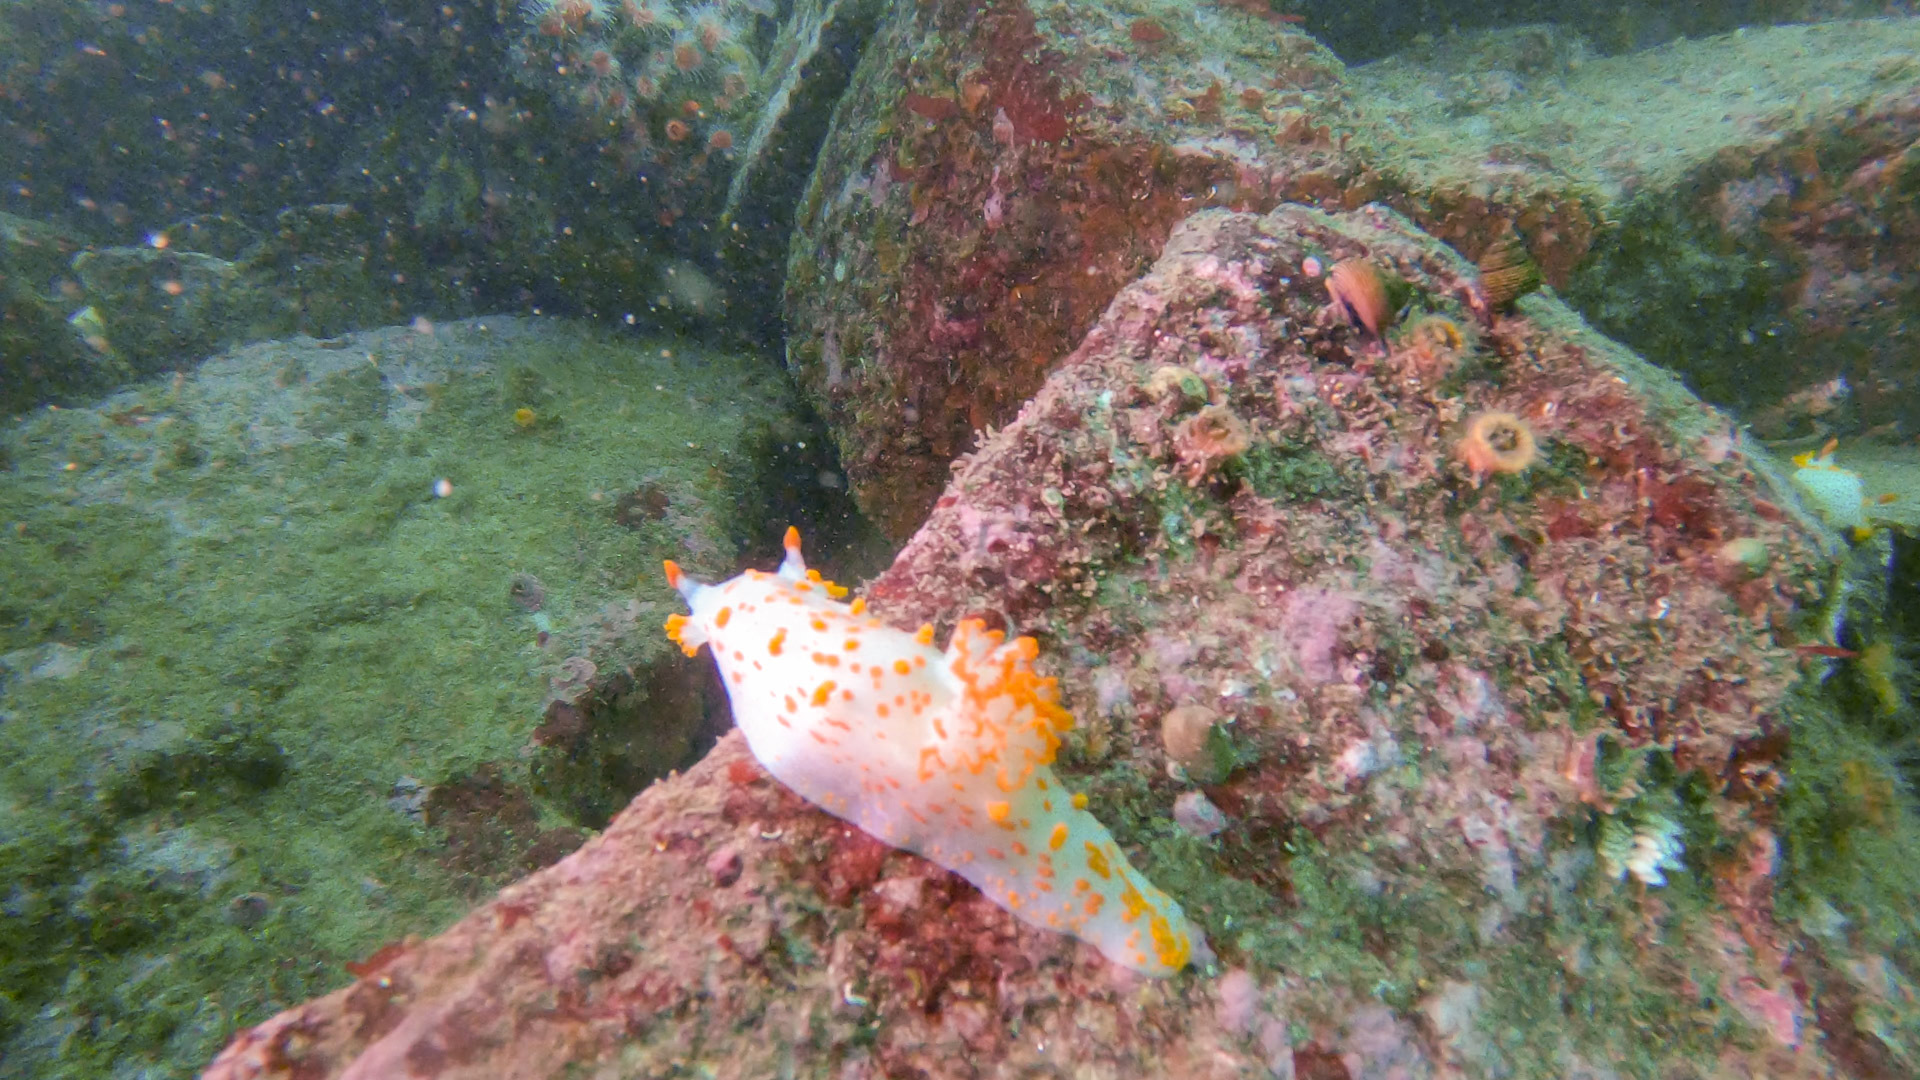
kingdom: Animalia
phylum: Mollusca
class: Gastropoda
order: Nudibranchia
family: Polyceridae
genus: Triopha
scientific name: Triopha catalinae
